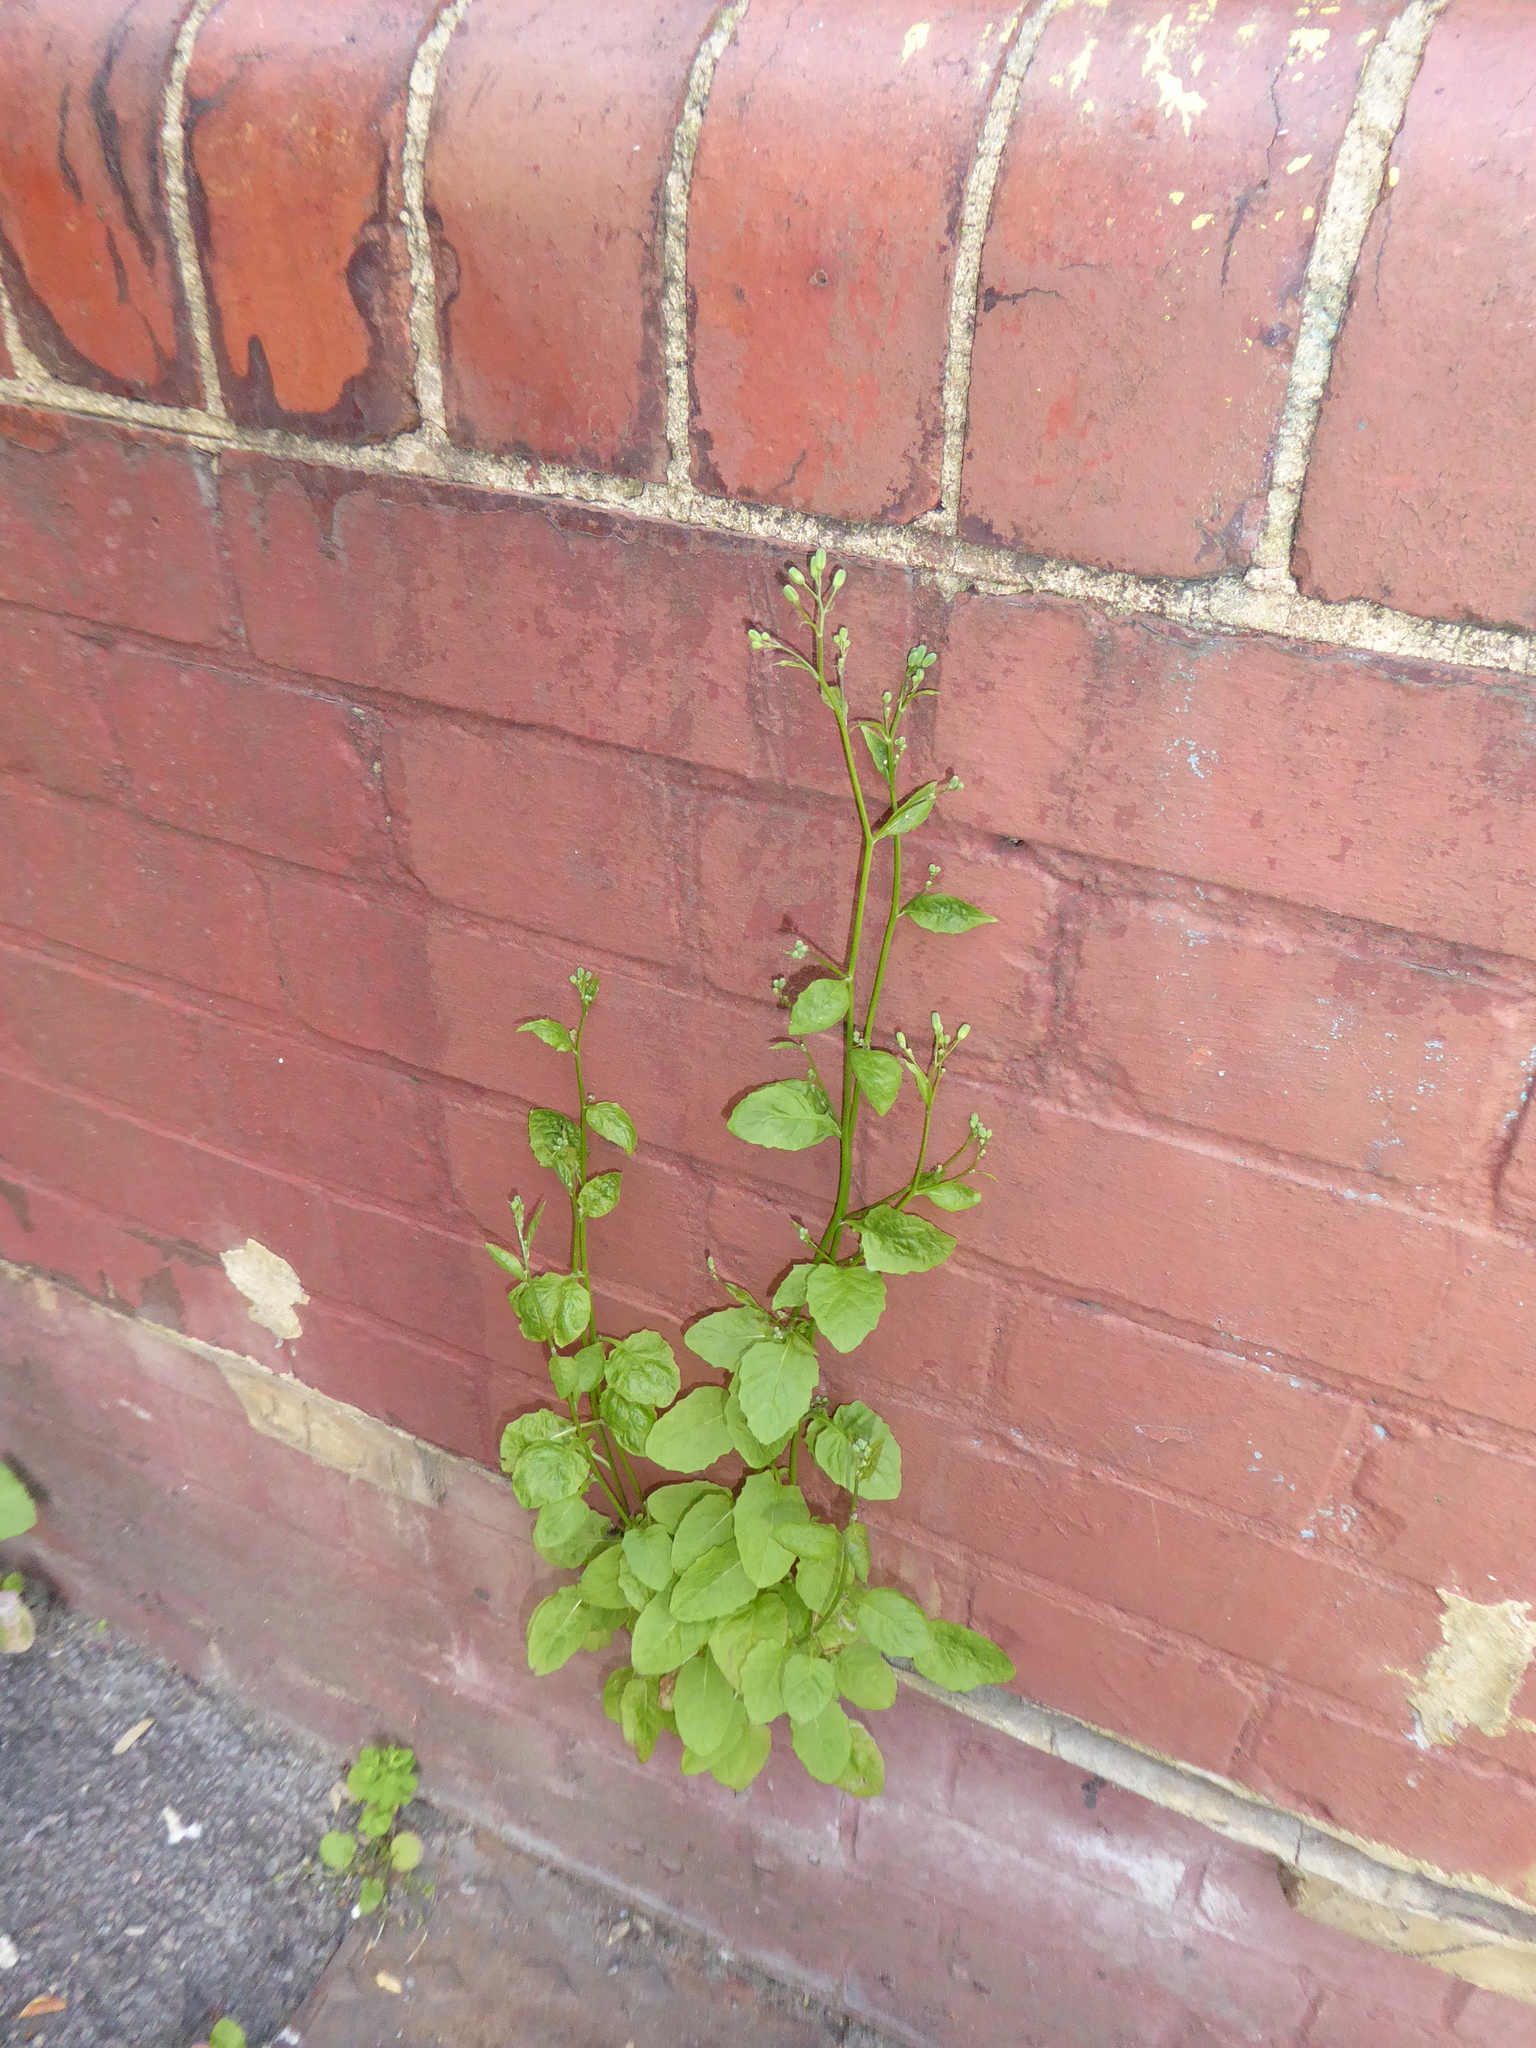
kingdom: Plantae
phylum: Tracheophyta
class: Magnoliopsida
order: Asterales
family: Asteraceae
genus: Lapsana
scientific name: Lapsana communis
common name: Nipplewort
